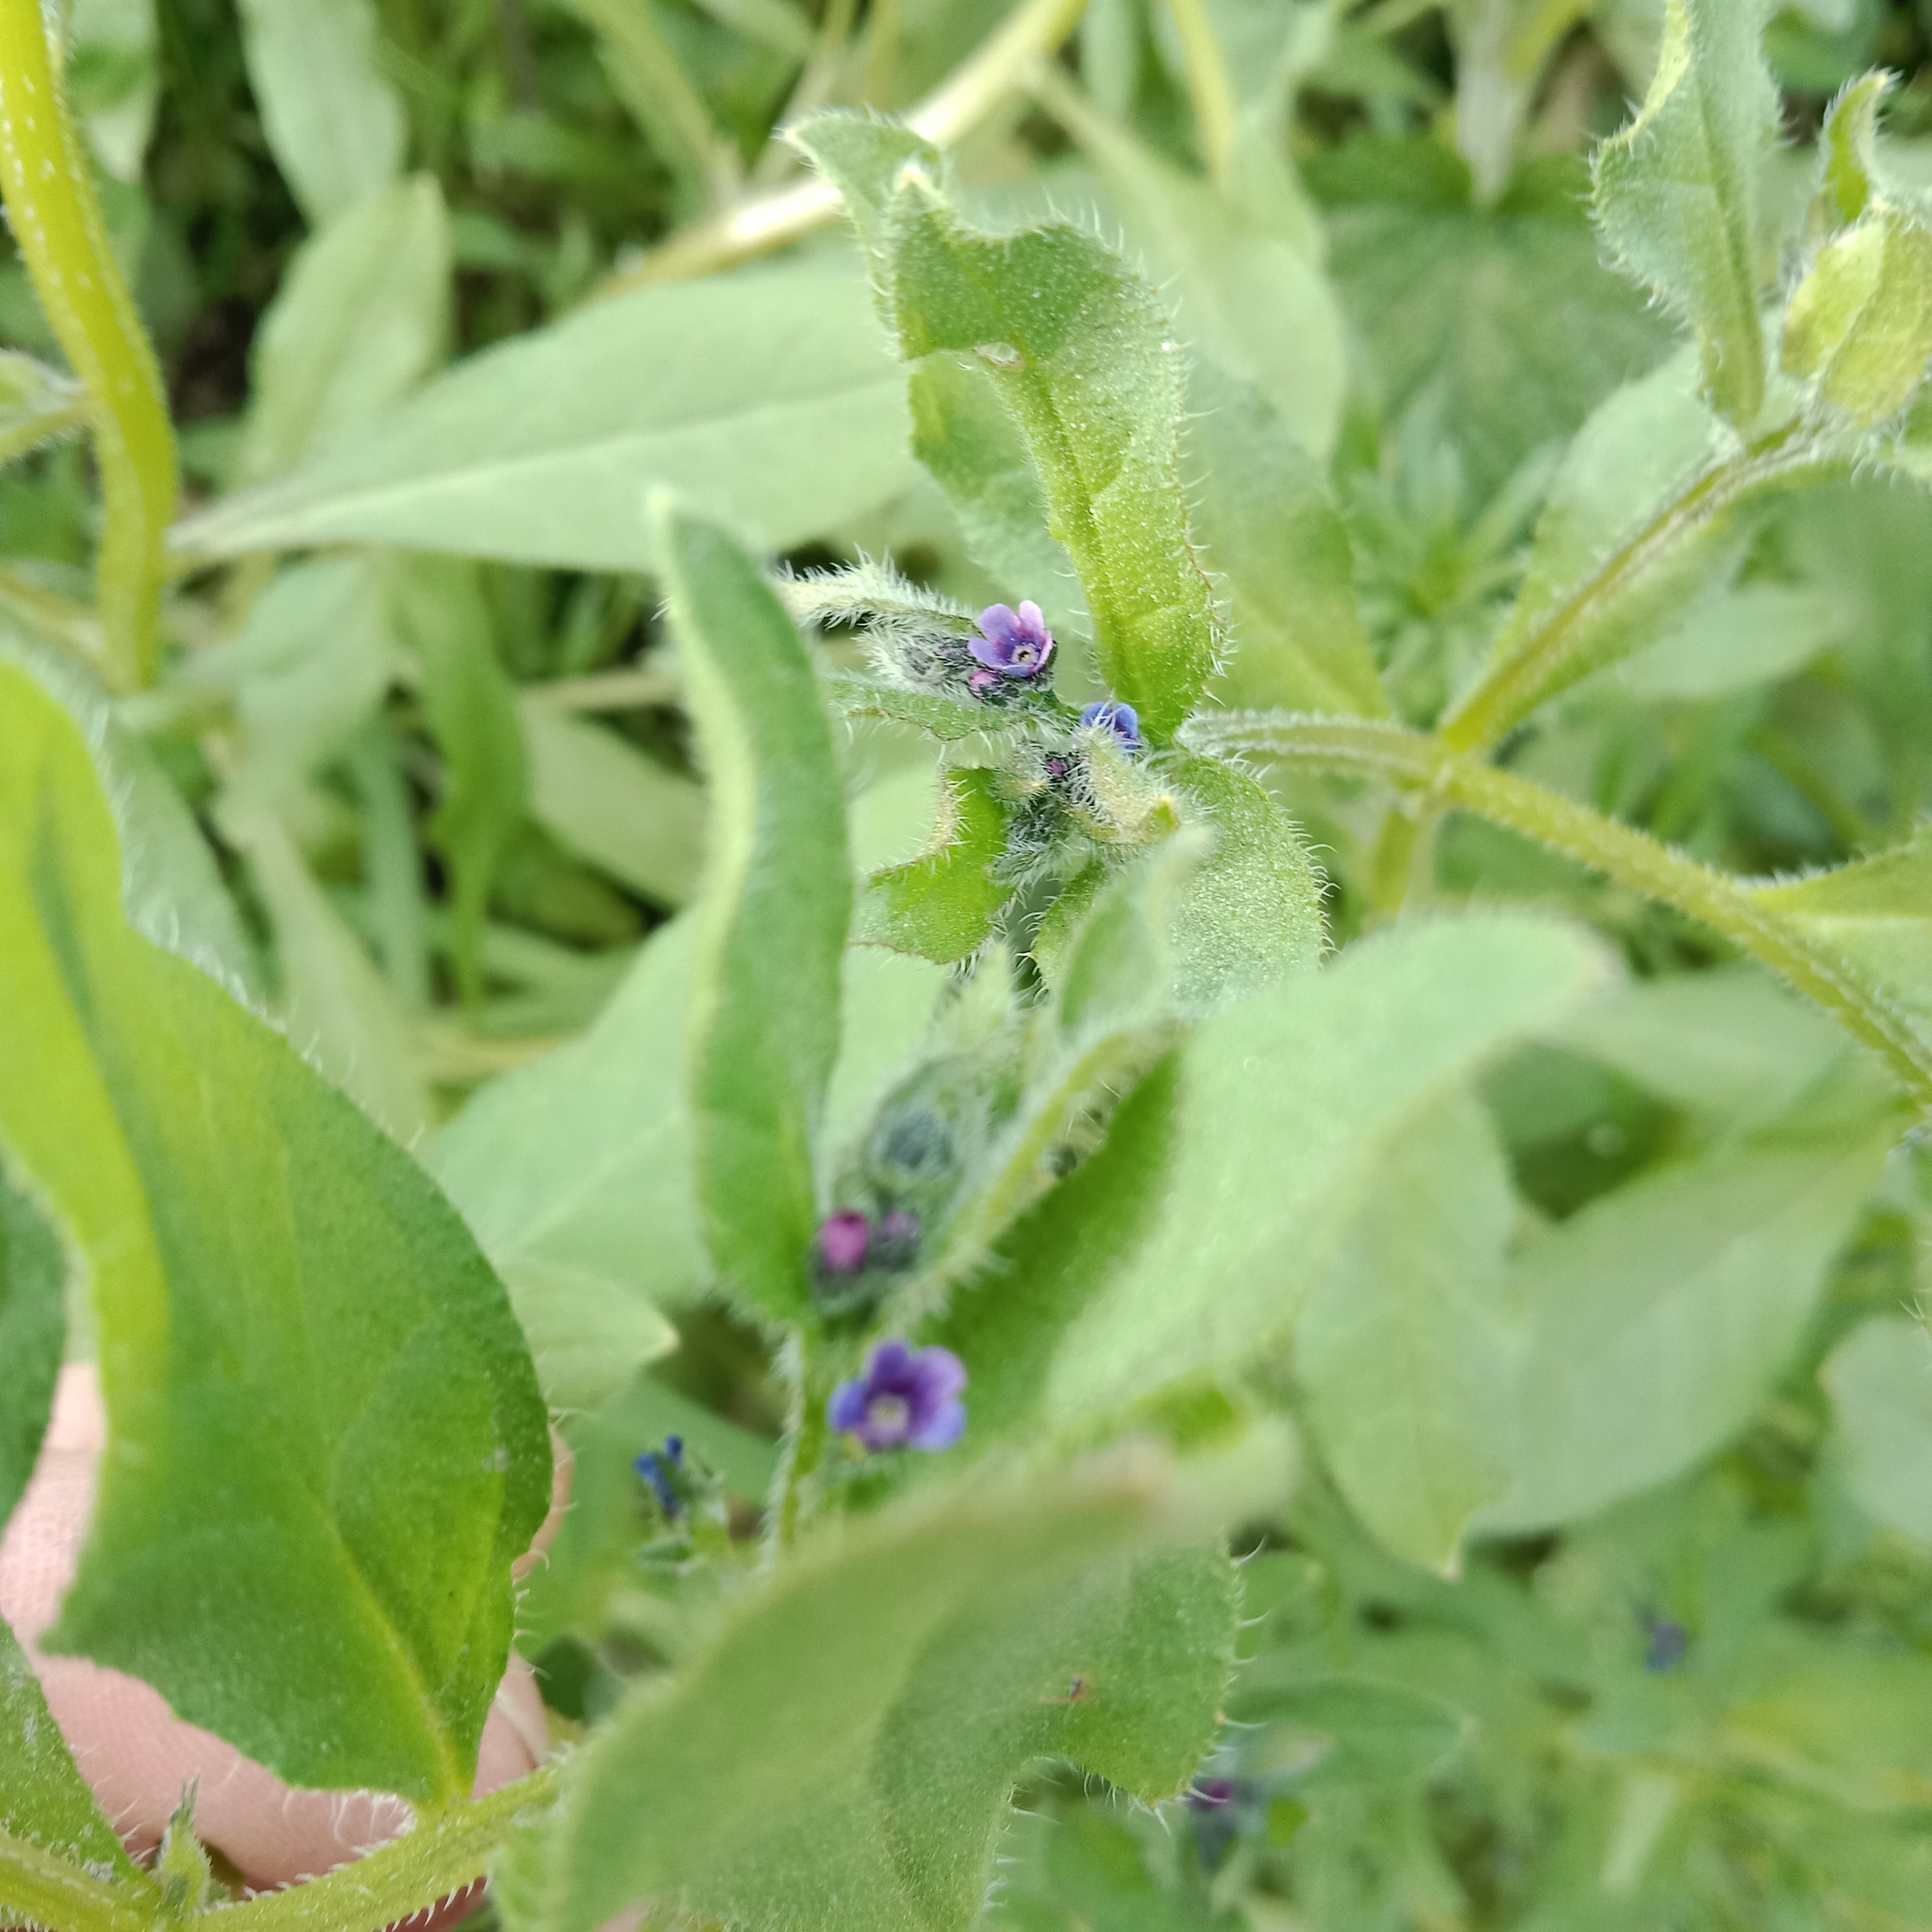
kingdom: Plantae
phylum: Tracheophyta
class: Magnoliopsida
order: Boraginales
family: Boraginaceae
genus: Asperugo
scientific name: Asperugo procumbens
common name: Madwort
